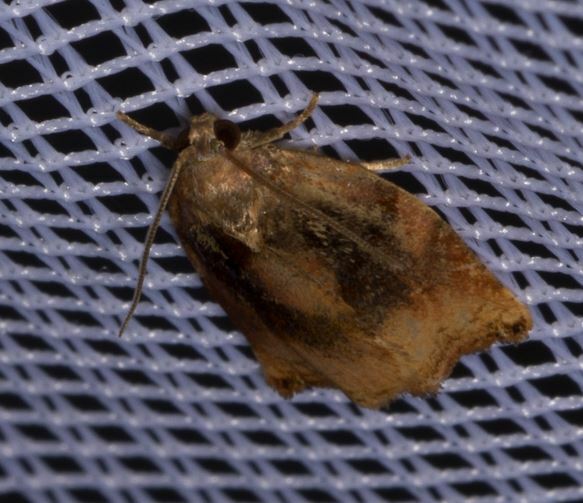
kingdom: Animalia
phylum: Arthropoda
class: Insecta
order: Lepidoptera
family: Tortricidae
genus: Archips
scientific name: Archips podana
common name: Large fruit-tree tortrix
